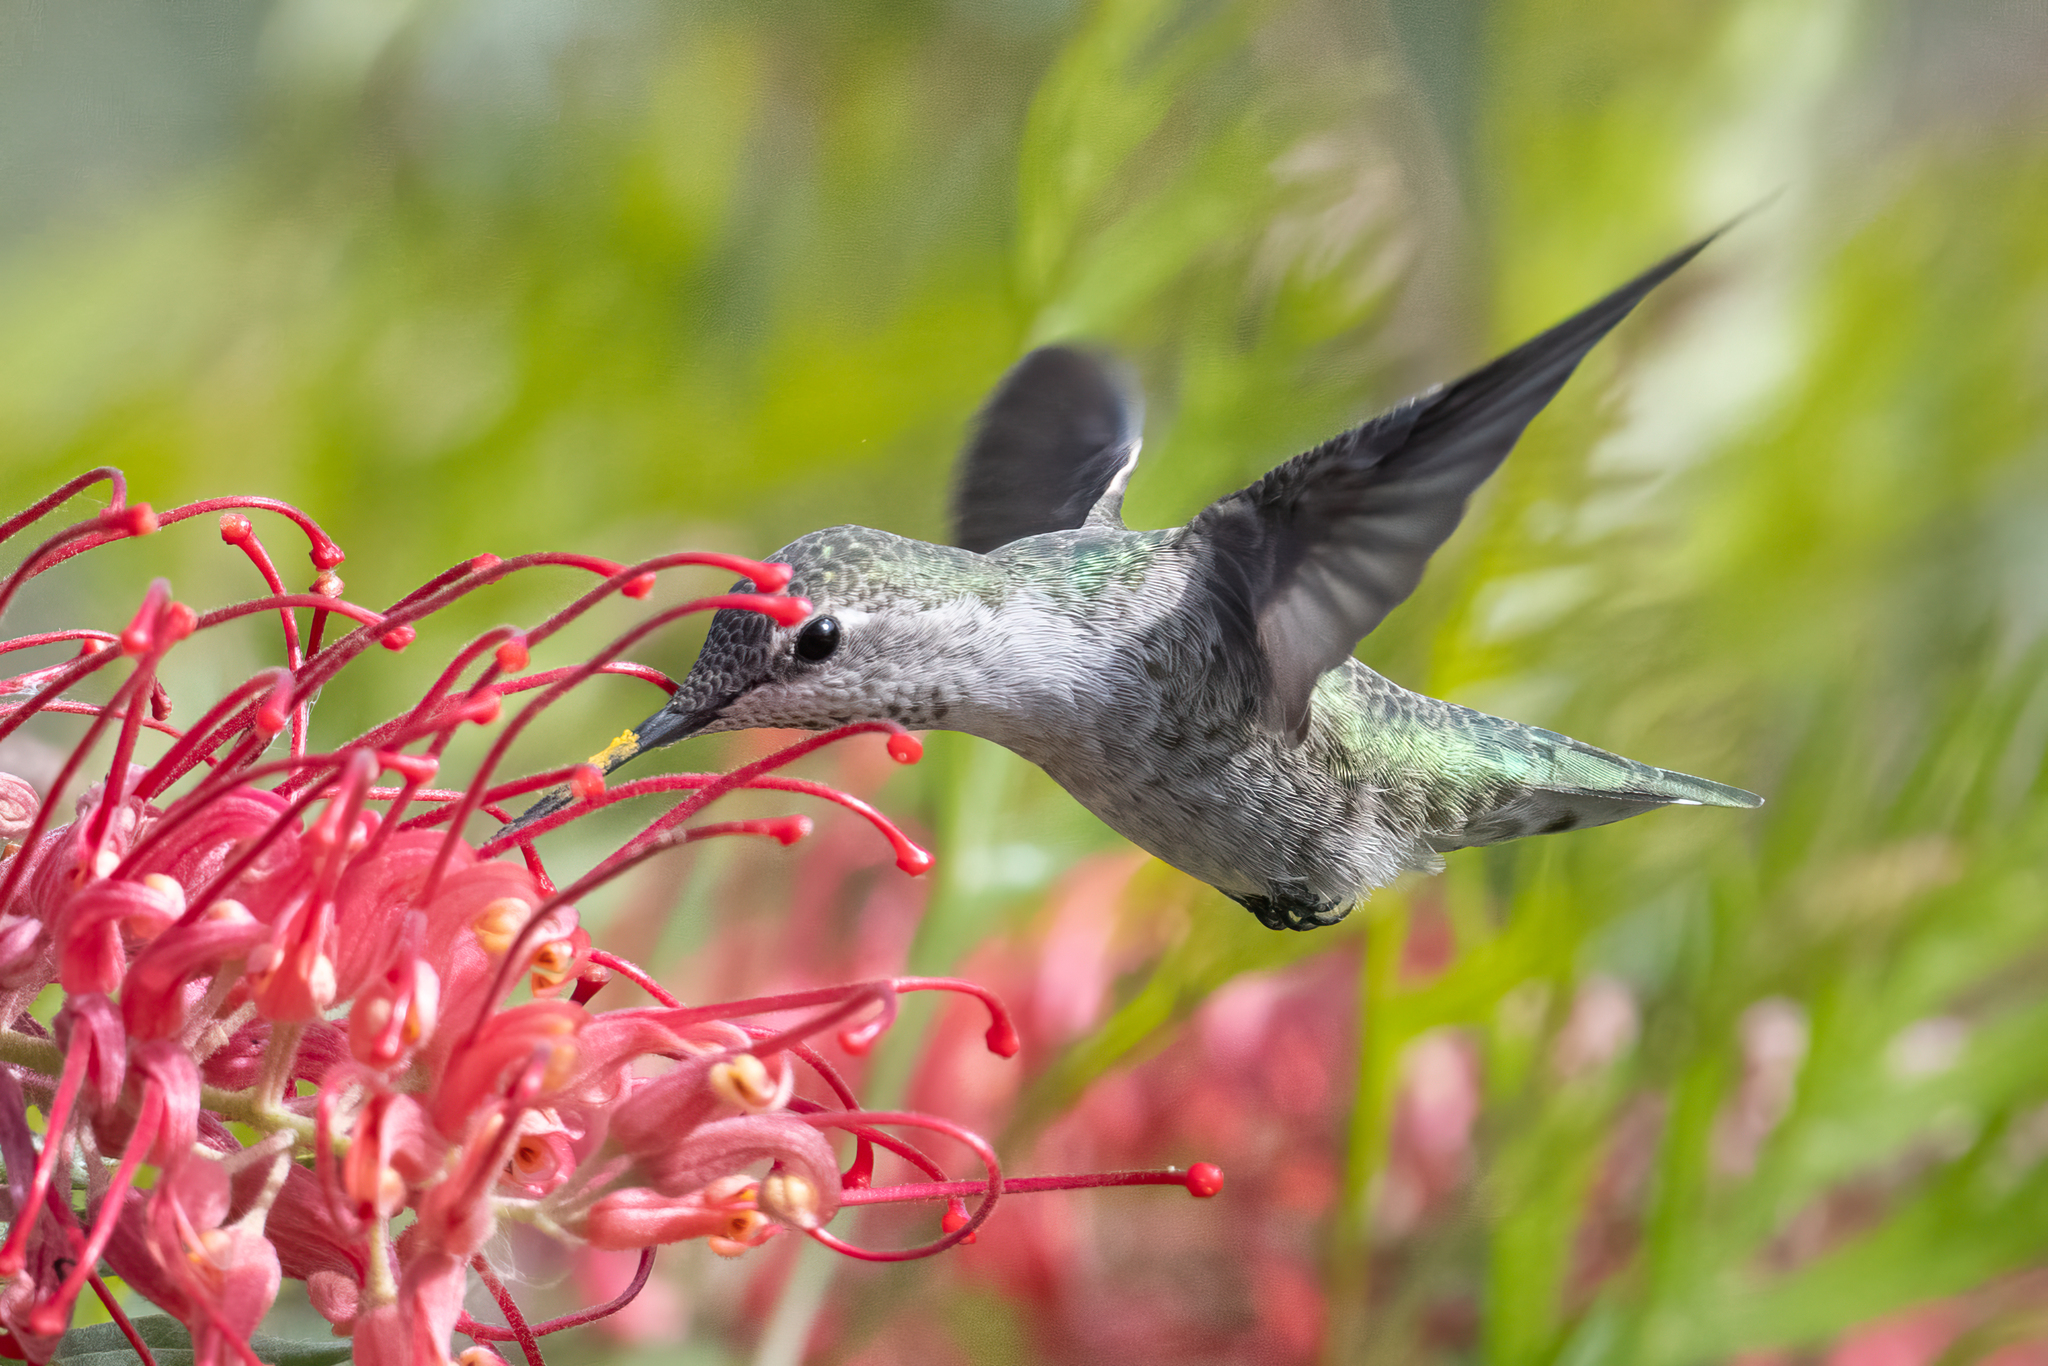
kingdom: Animalia
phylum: Chordata
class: Aves
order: Apodiformes
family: Trochilidae
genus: Calypte
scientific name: Calypte anna
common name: Anna's hummingbird
